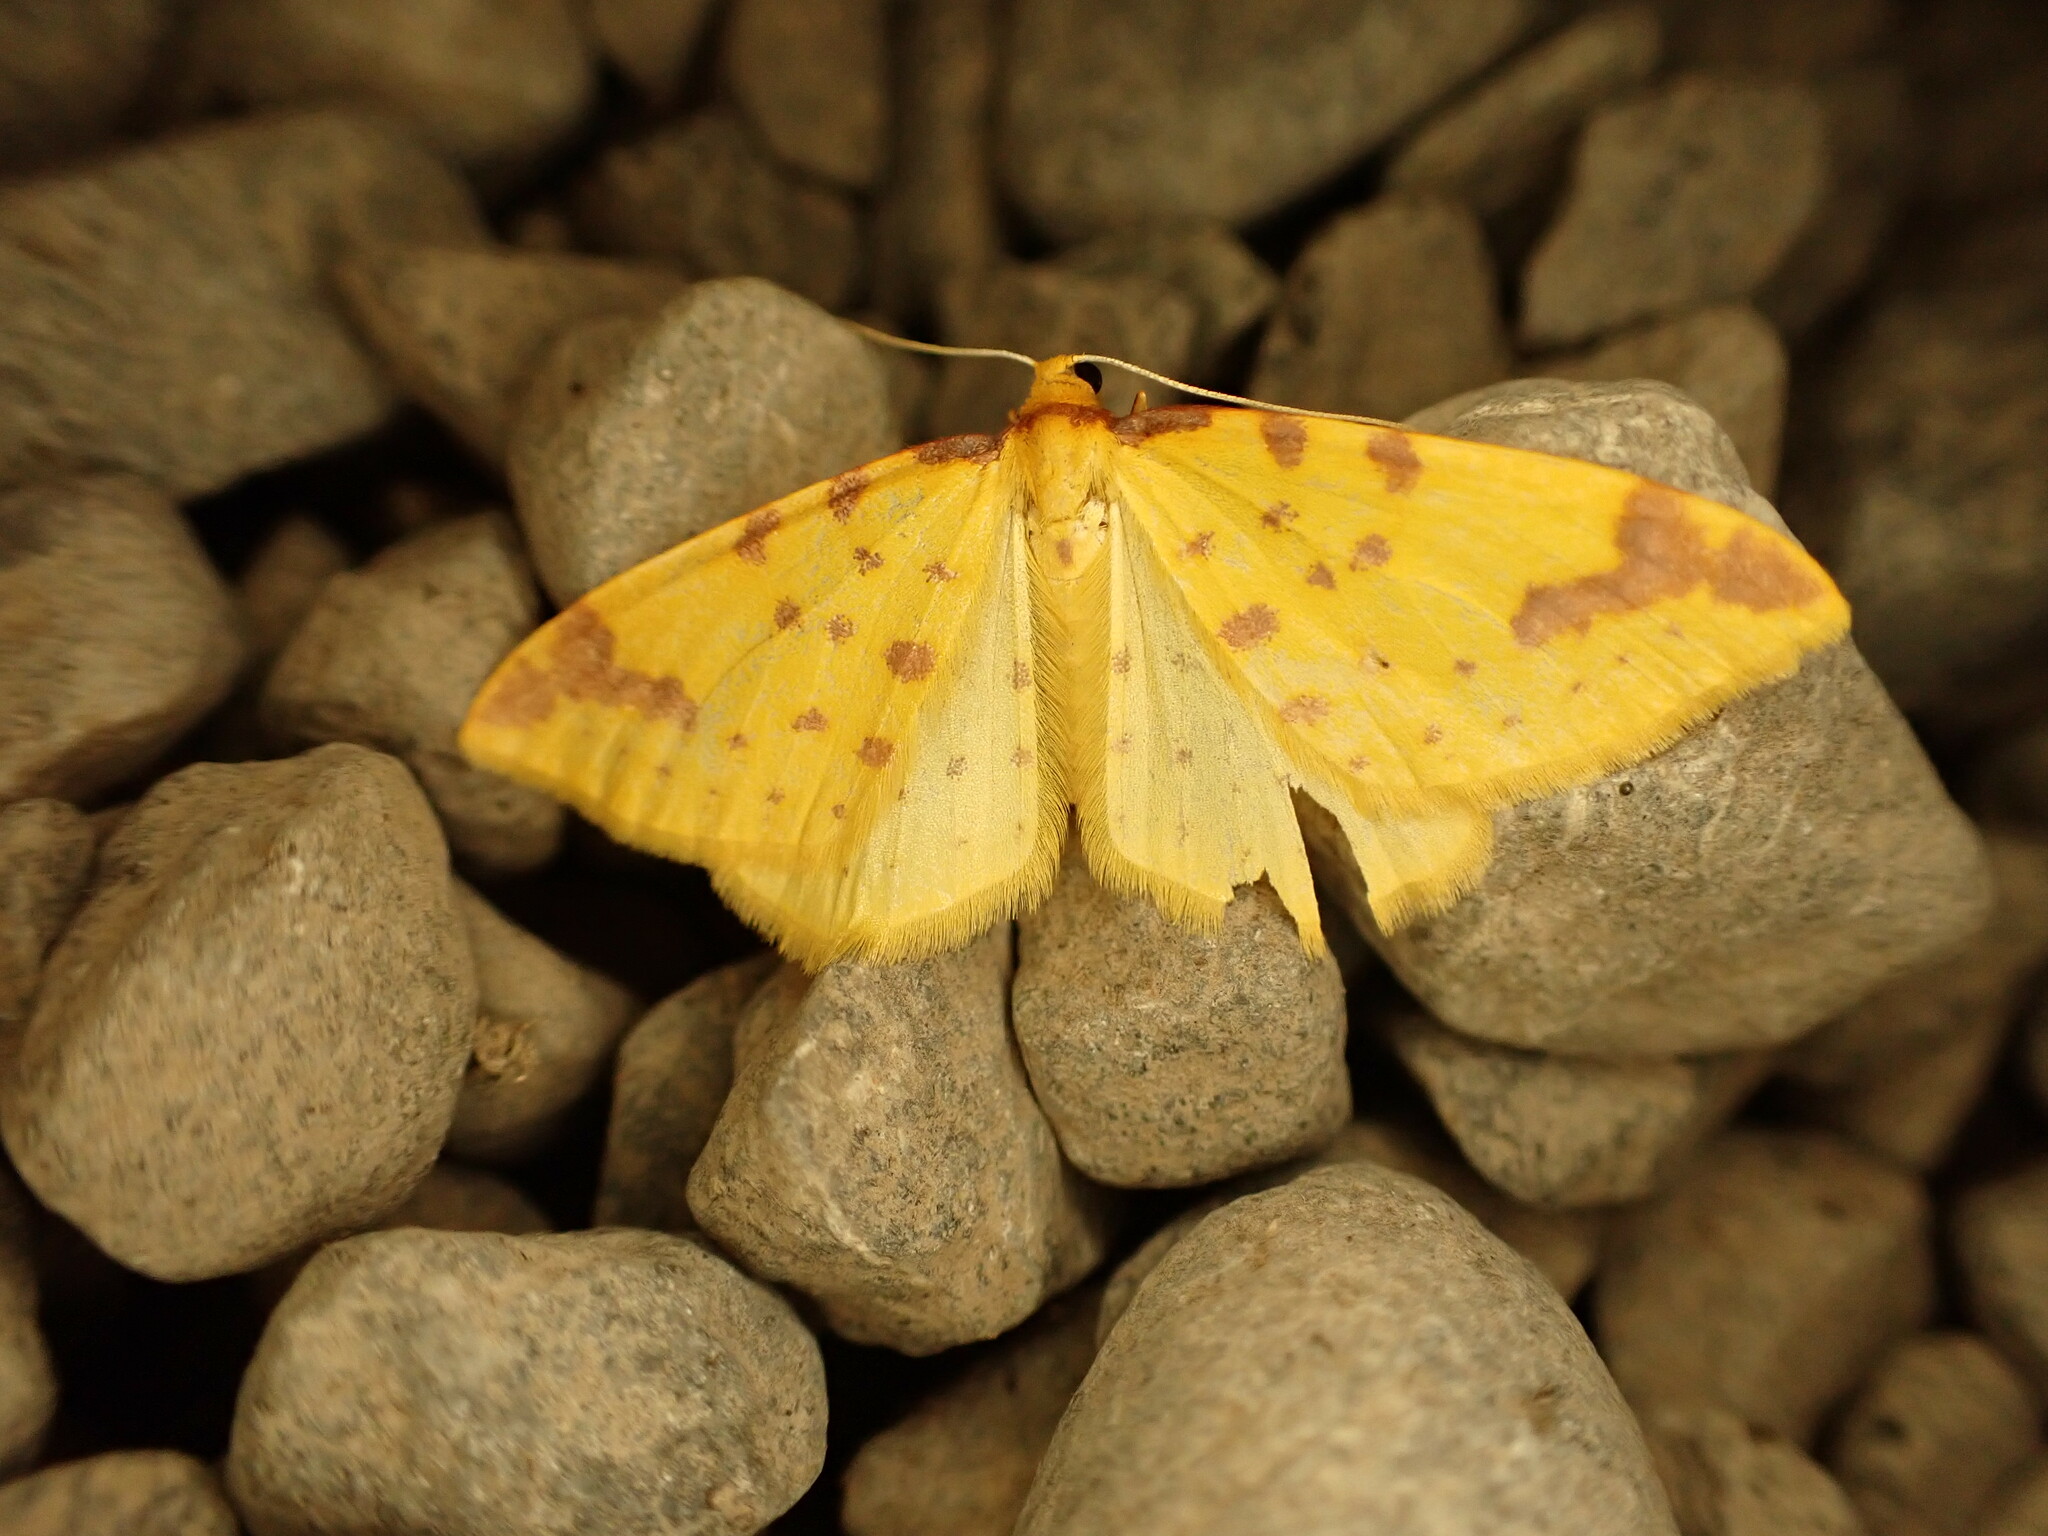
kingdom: Animalia
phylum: Arthropoda
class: Insecta
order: Lepidoptera
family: Geometridae
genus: Orthoclydon
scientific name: Orthoclydon chlorias
